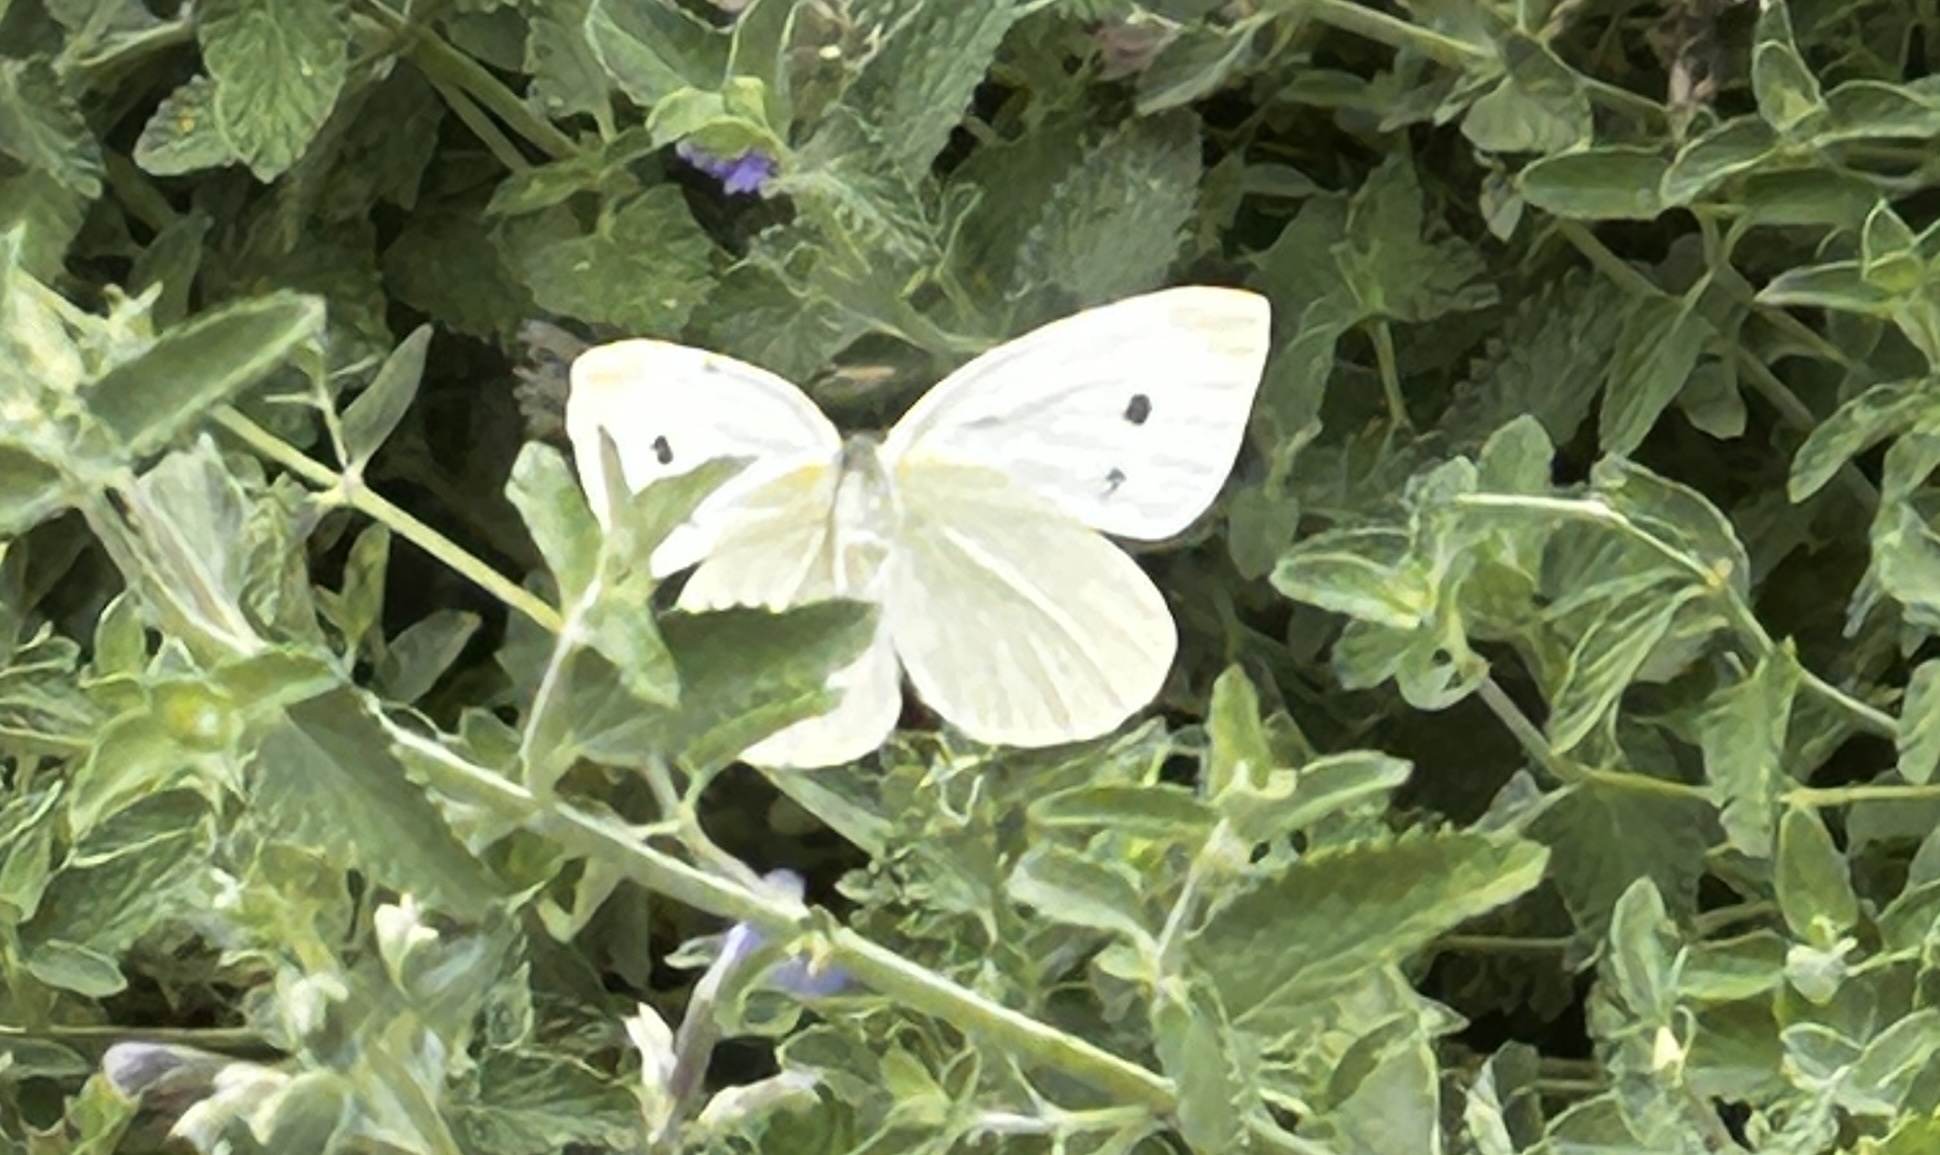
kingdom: Animalia
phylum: Arthropoda
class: Insecta
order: Lepidoptera
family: Pieridae
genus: Pieris
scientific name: Pieris rapae
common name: Small white
